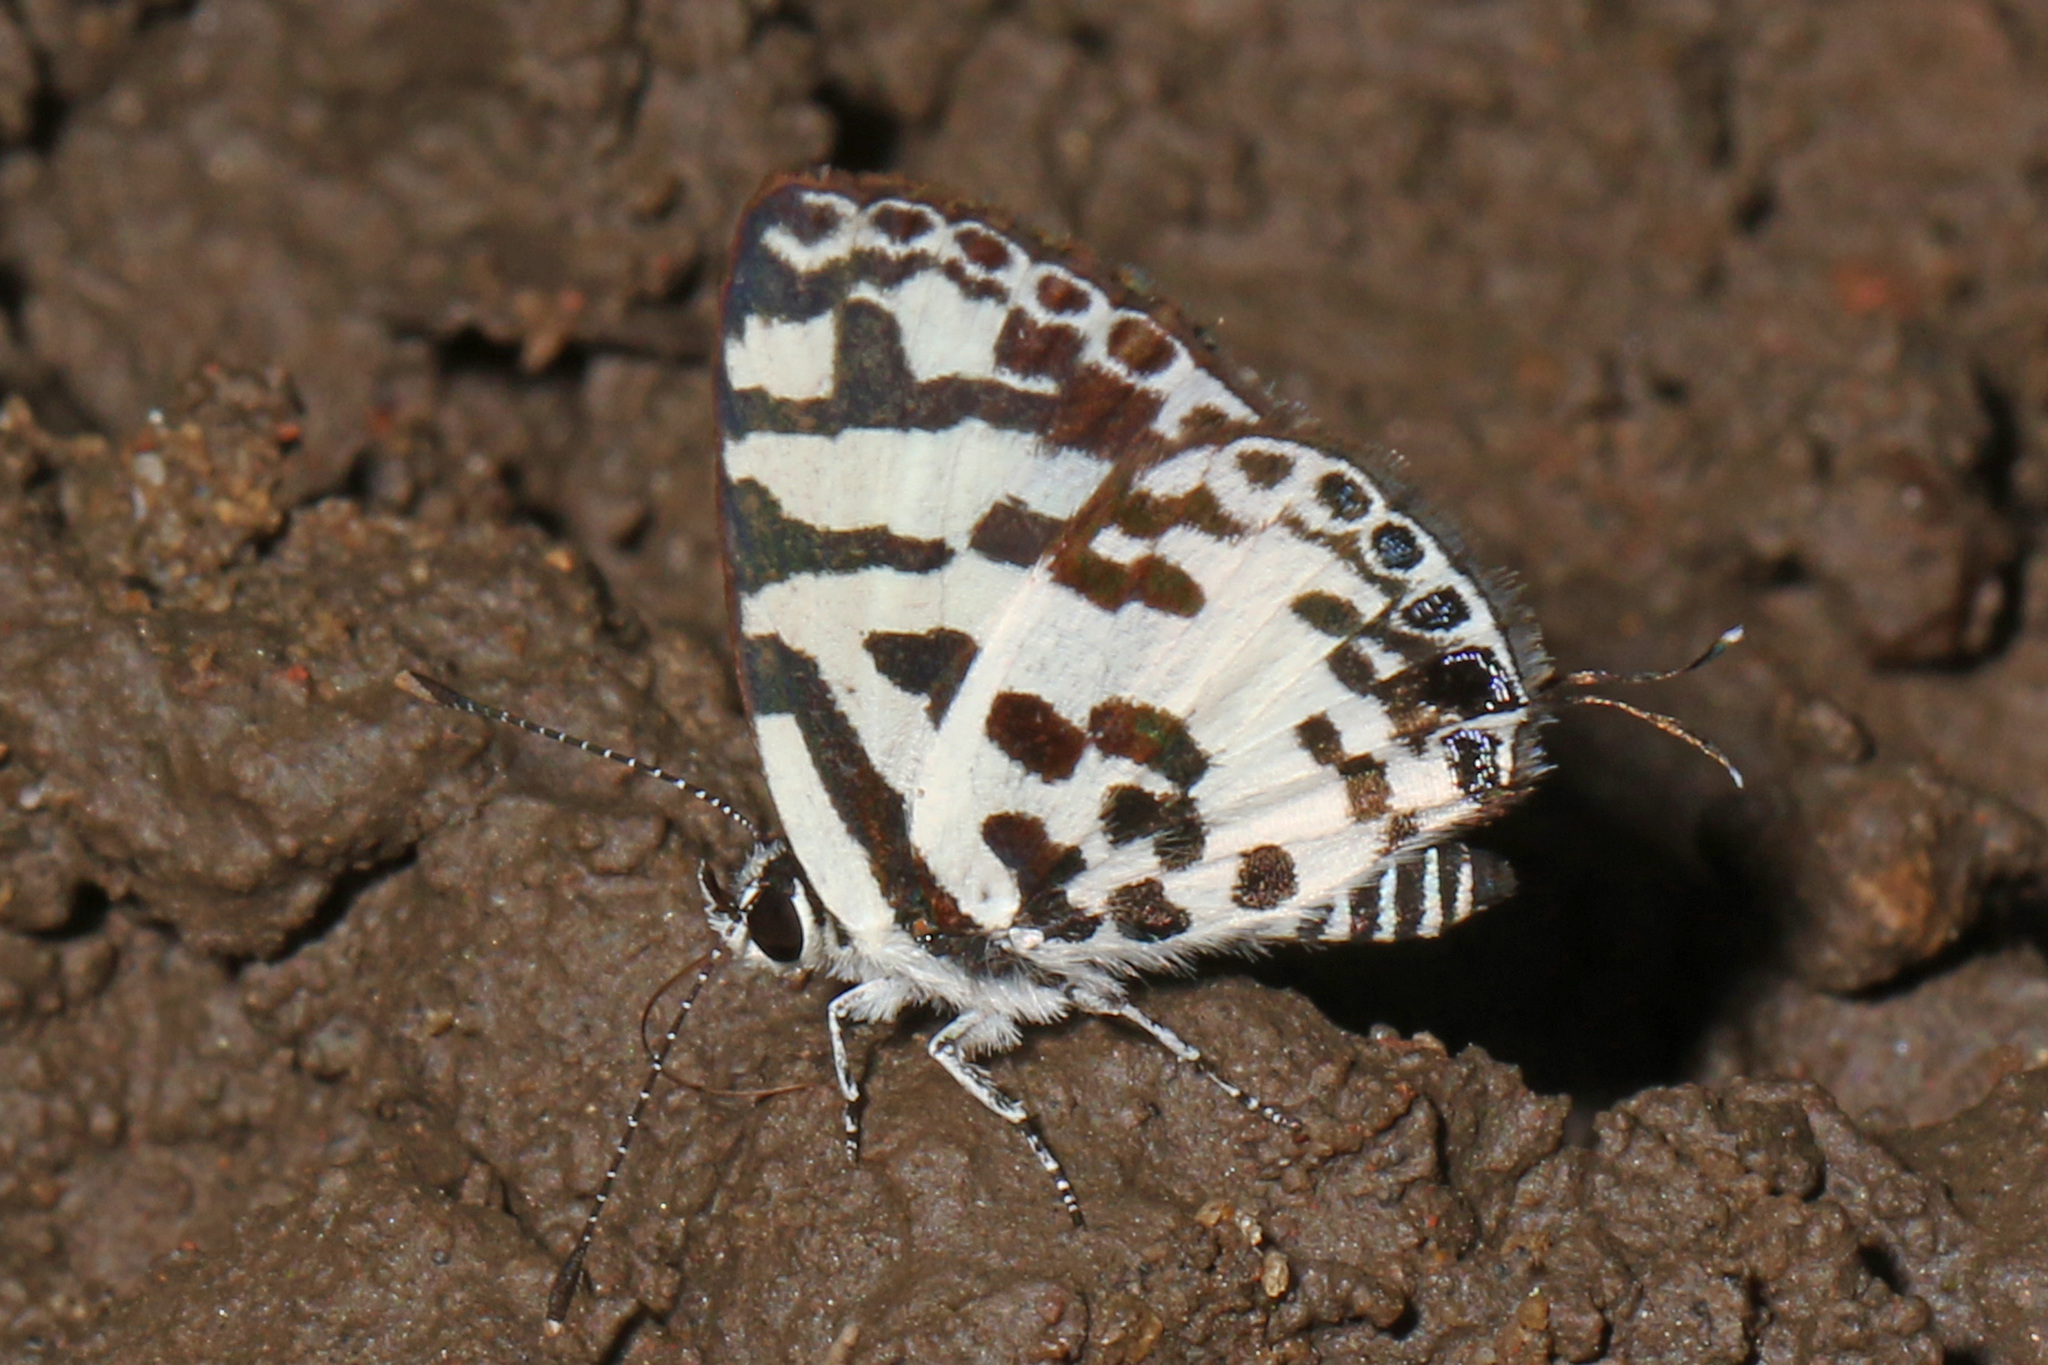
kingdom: Animalia
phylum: Arthropoda
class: Insecta
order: Lepidoptera
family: Lycaenidae
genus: Castalius
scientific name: Castalius melaena
